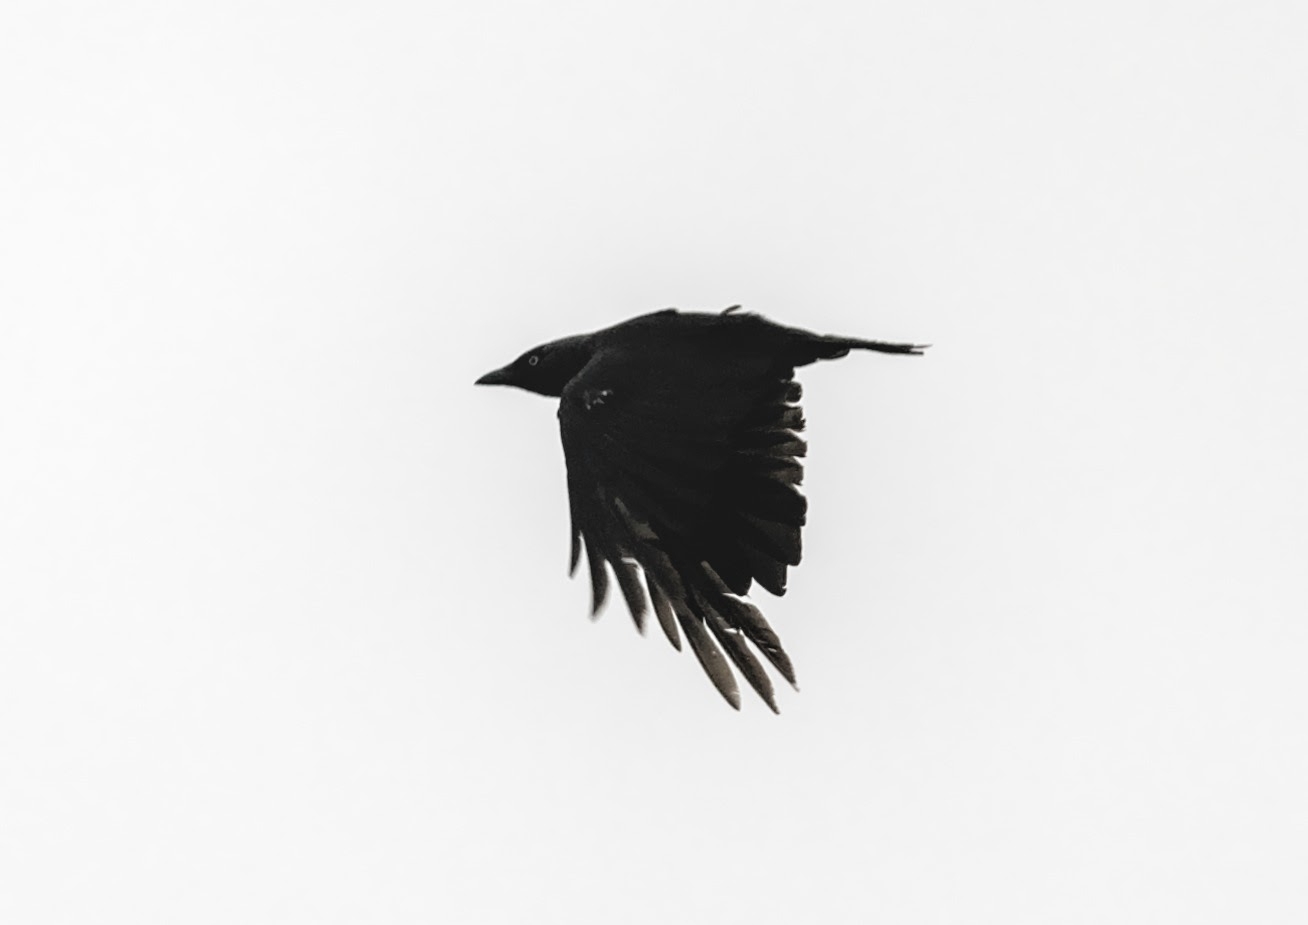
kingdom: Animalia
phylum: Chordata
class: Aves
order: Passeriformes
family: Corvidae
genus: Corvus
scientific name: Corvus corone
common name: Carrion crow
